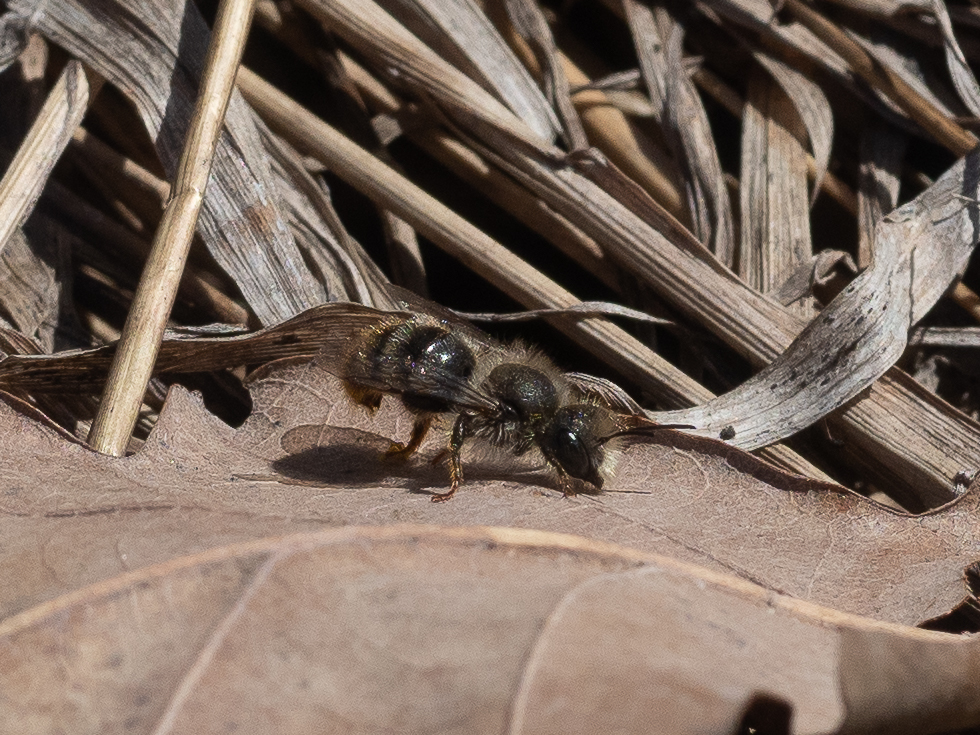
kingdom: Animalia
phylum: Arthropoda
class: Insecta
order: Hymenoptera
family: Megachilidae
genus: Osmia
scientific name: Osmia bicolor
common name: Red-tailed mason bee
